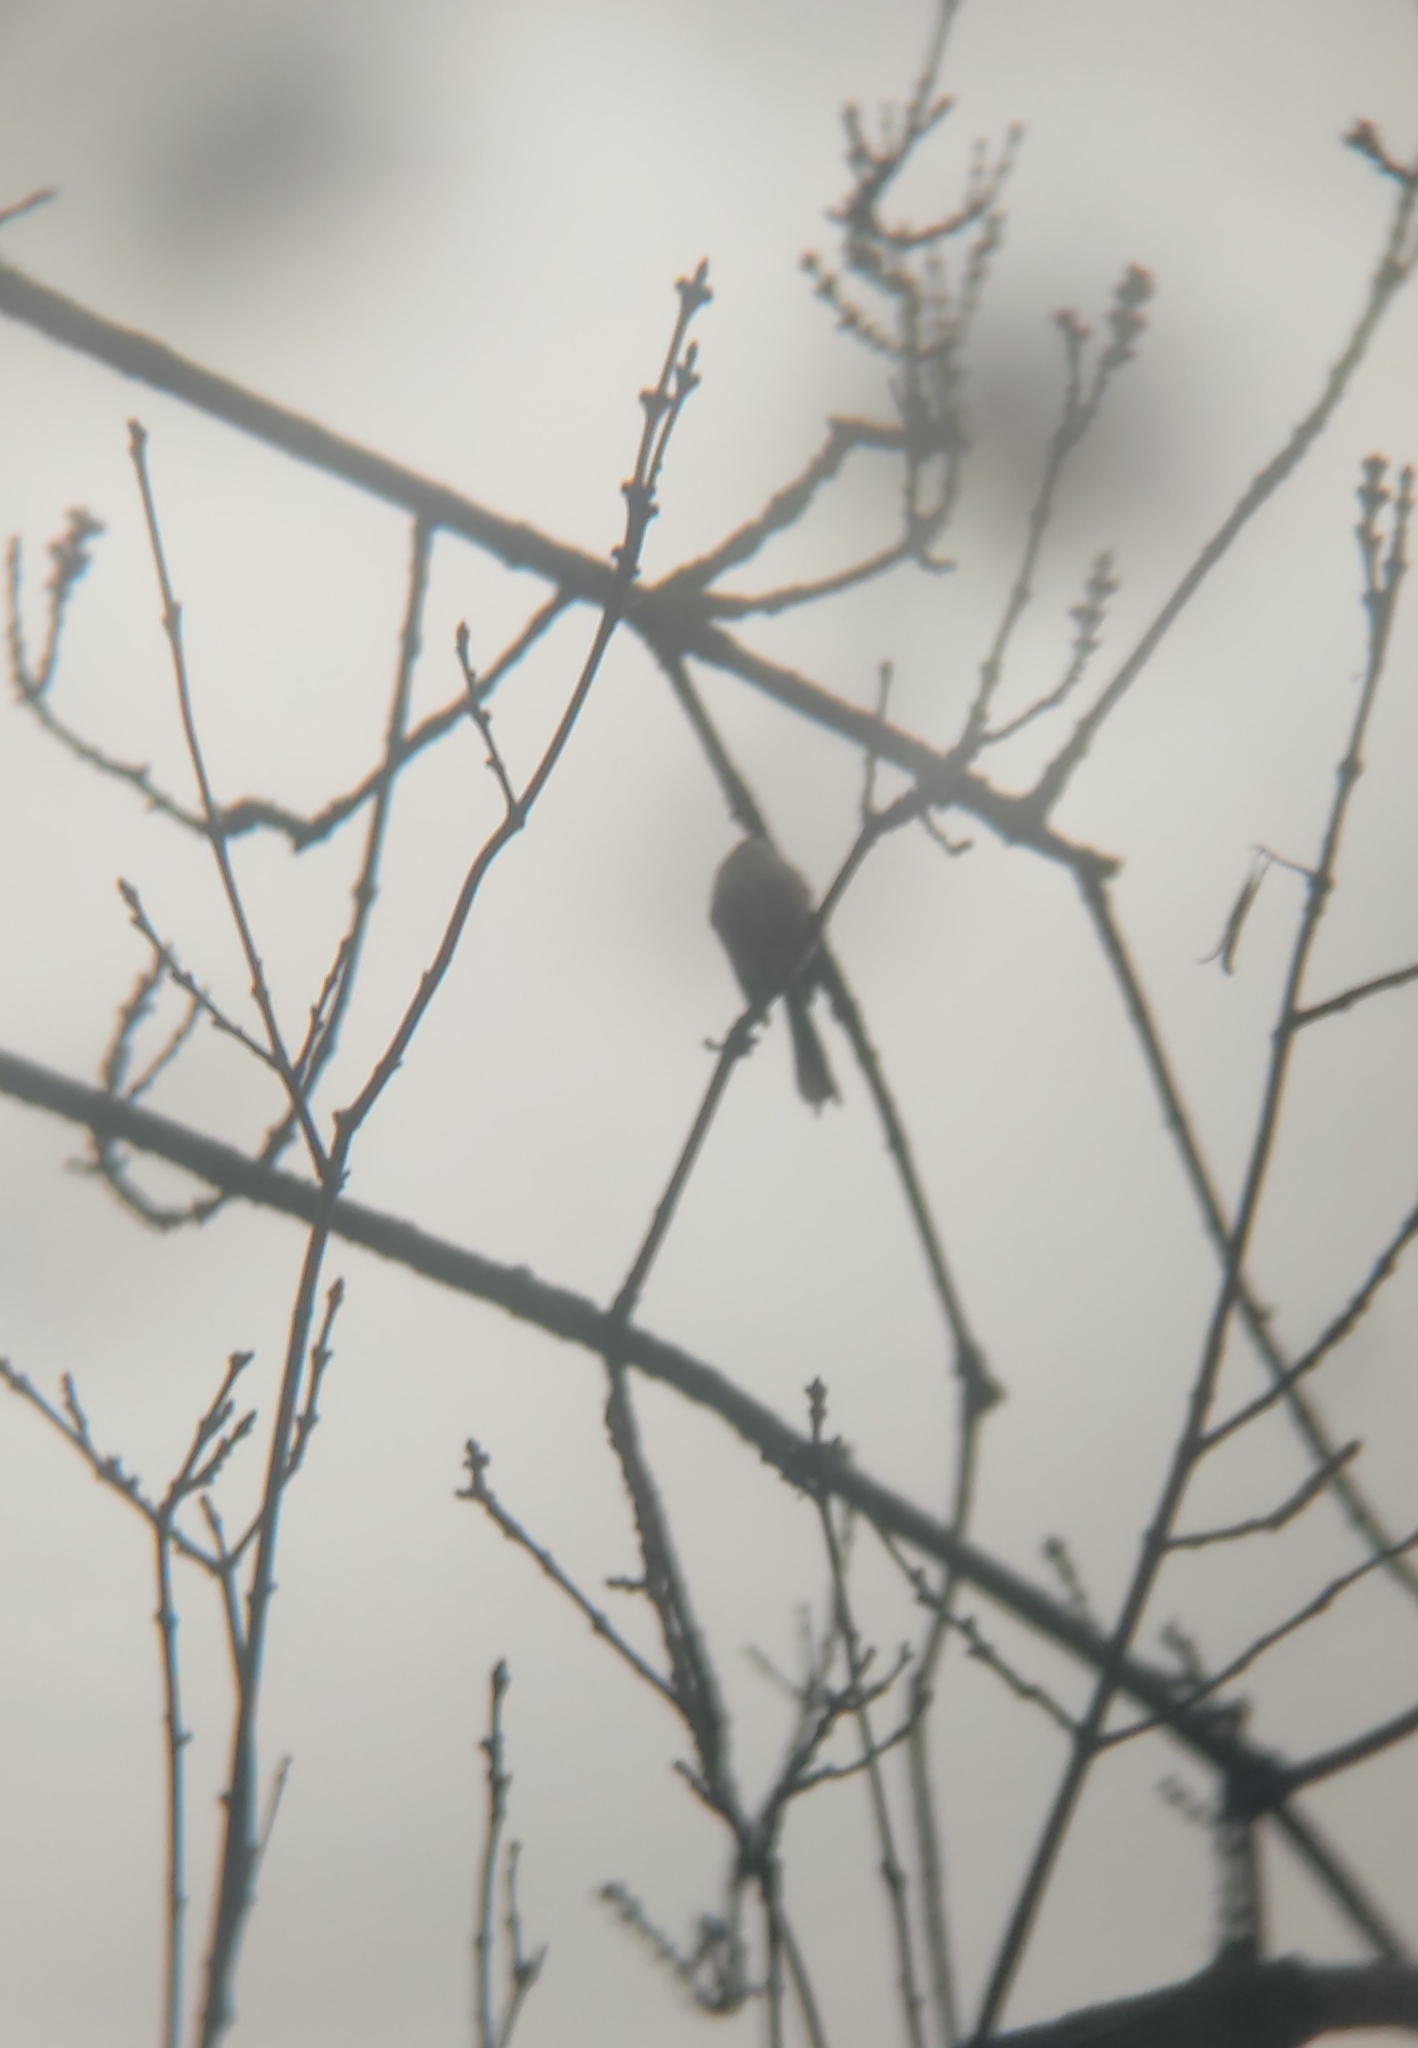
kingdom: Animalia
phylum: Chordata
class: Aves
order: Passeriformes
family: Aegithalidae
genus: Aegithalos
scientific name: Aegithalos caudatus
